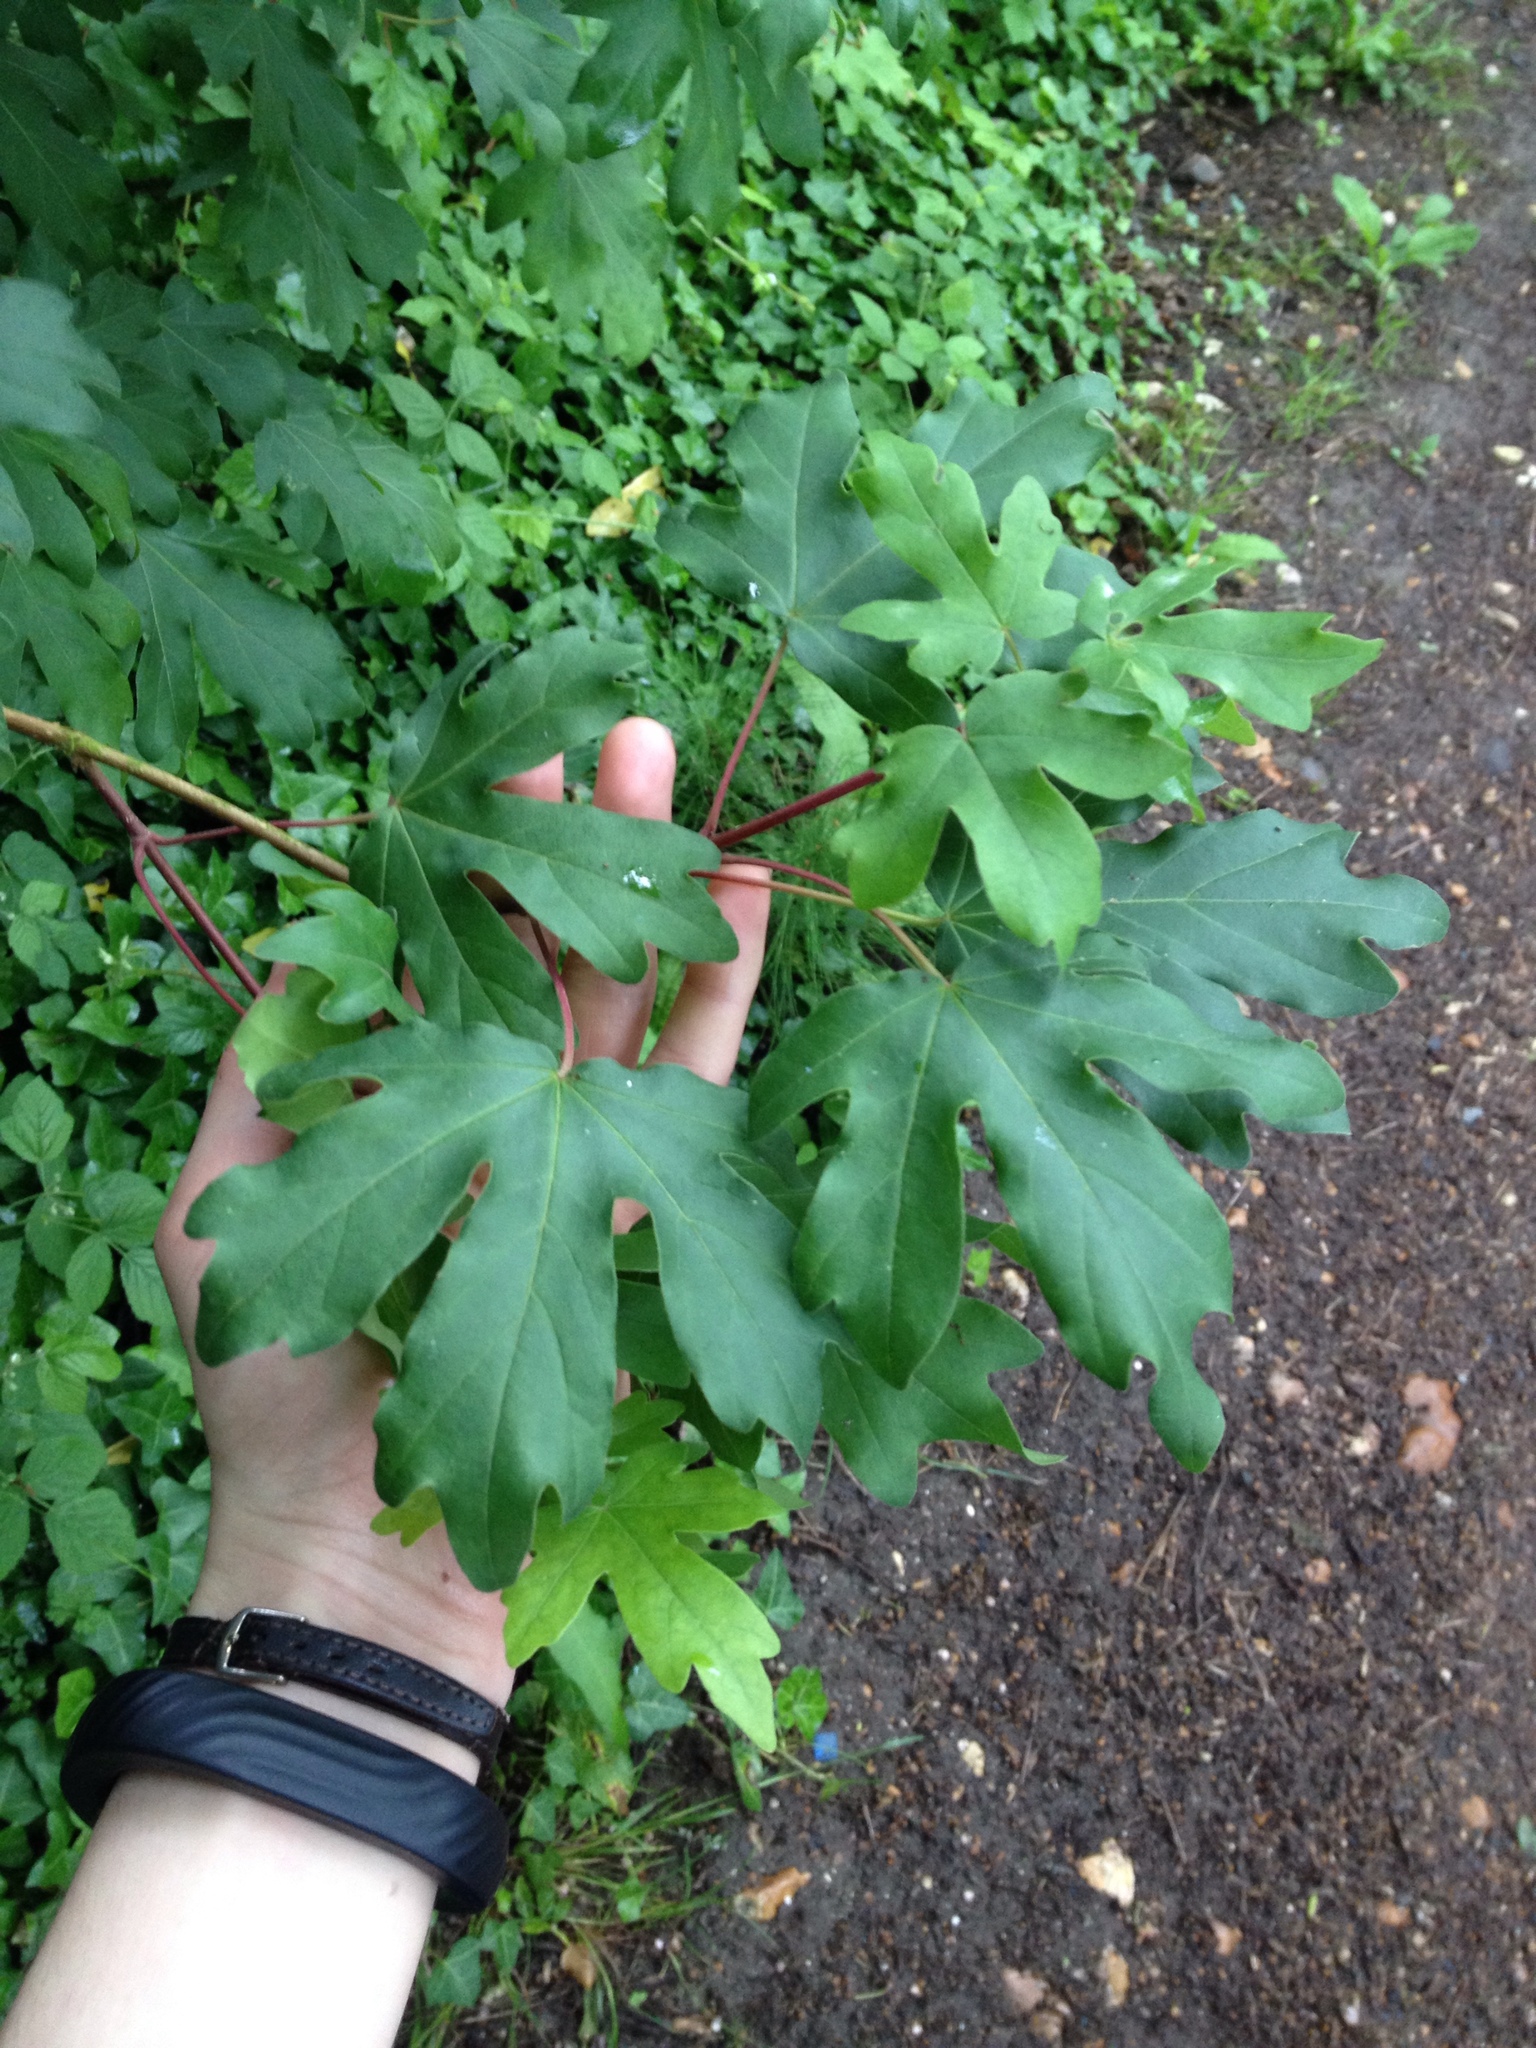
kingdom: Plantae
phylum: Tracheophyta
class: Magnoliopsida
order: Sapindales
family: Sapindaceae
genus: Acer
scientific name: Acer campestre
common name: Field maple
